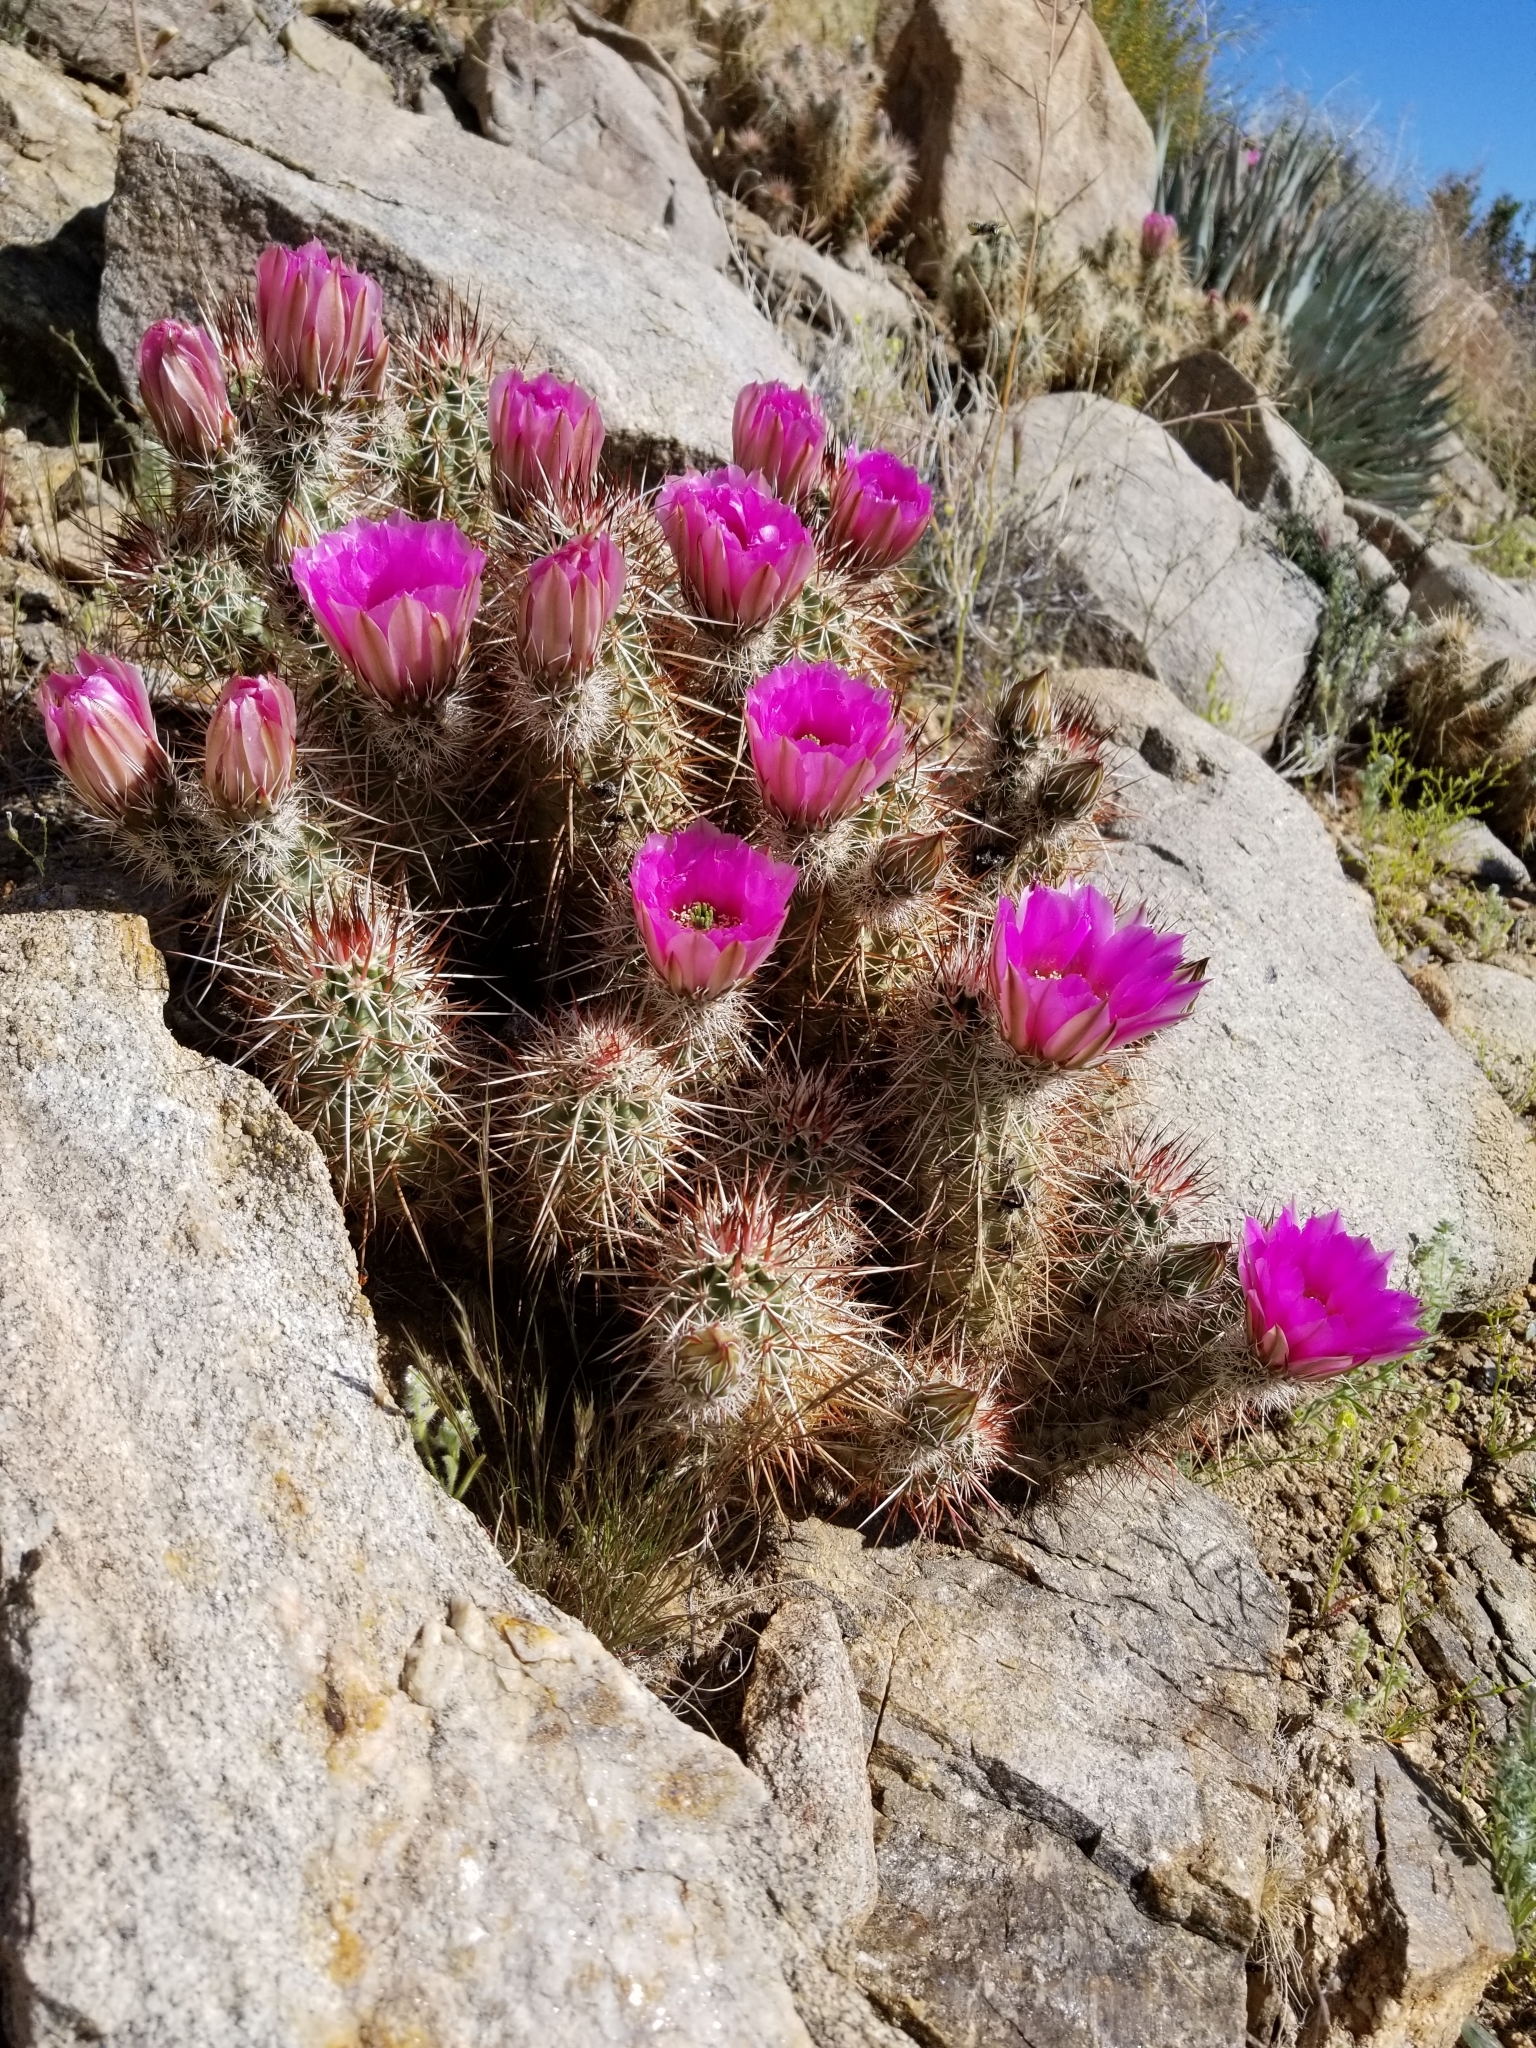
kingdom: Plantae
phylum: Tracheophyta
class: Magnoliopsida
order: Caryophyllales
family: Cactaceae
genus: Echinocereus
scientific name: Echinocereus engelmannii
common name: Engelmann's hedgehog cactus
